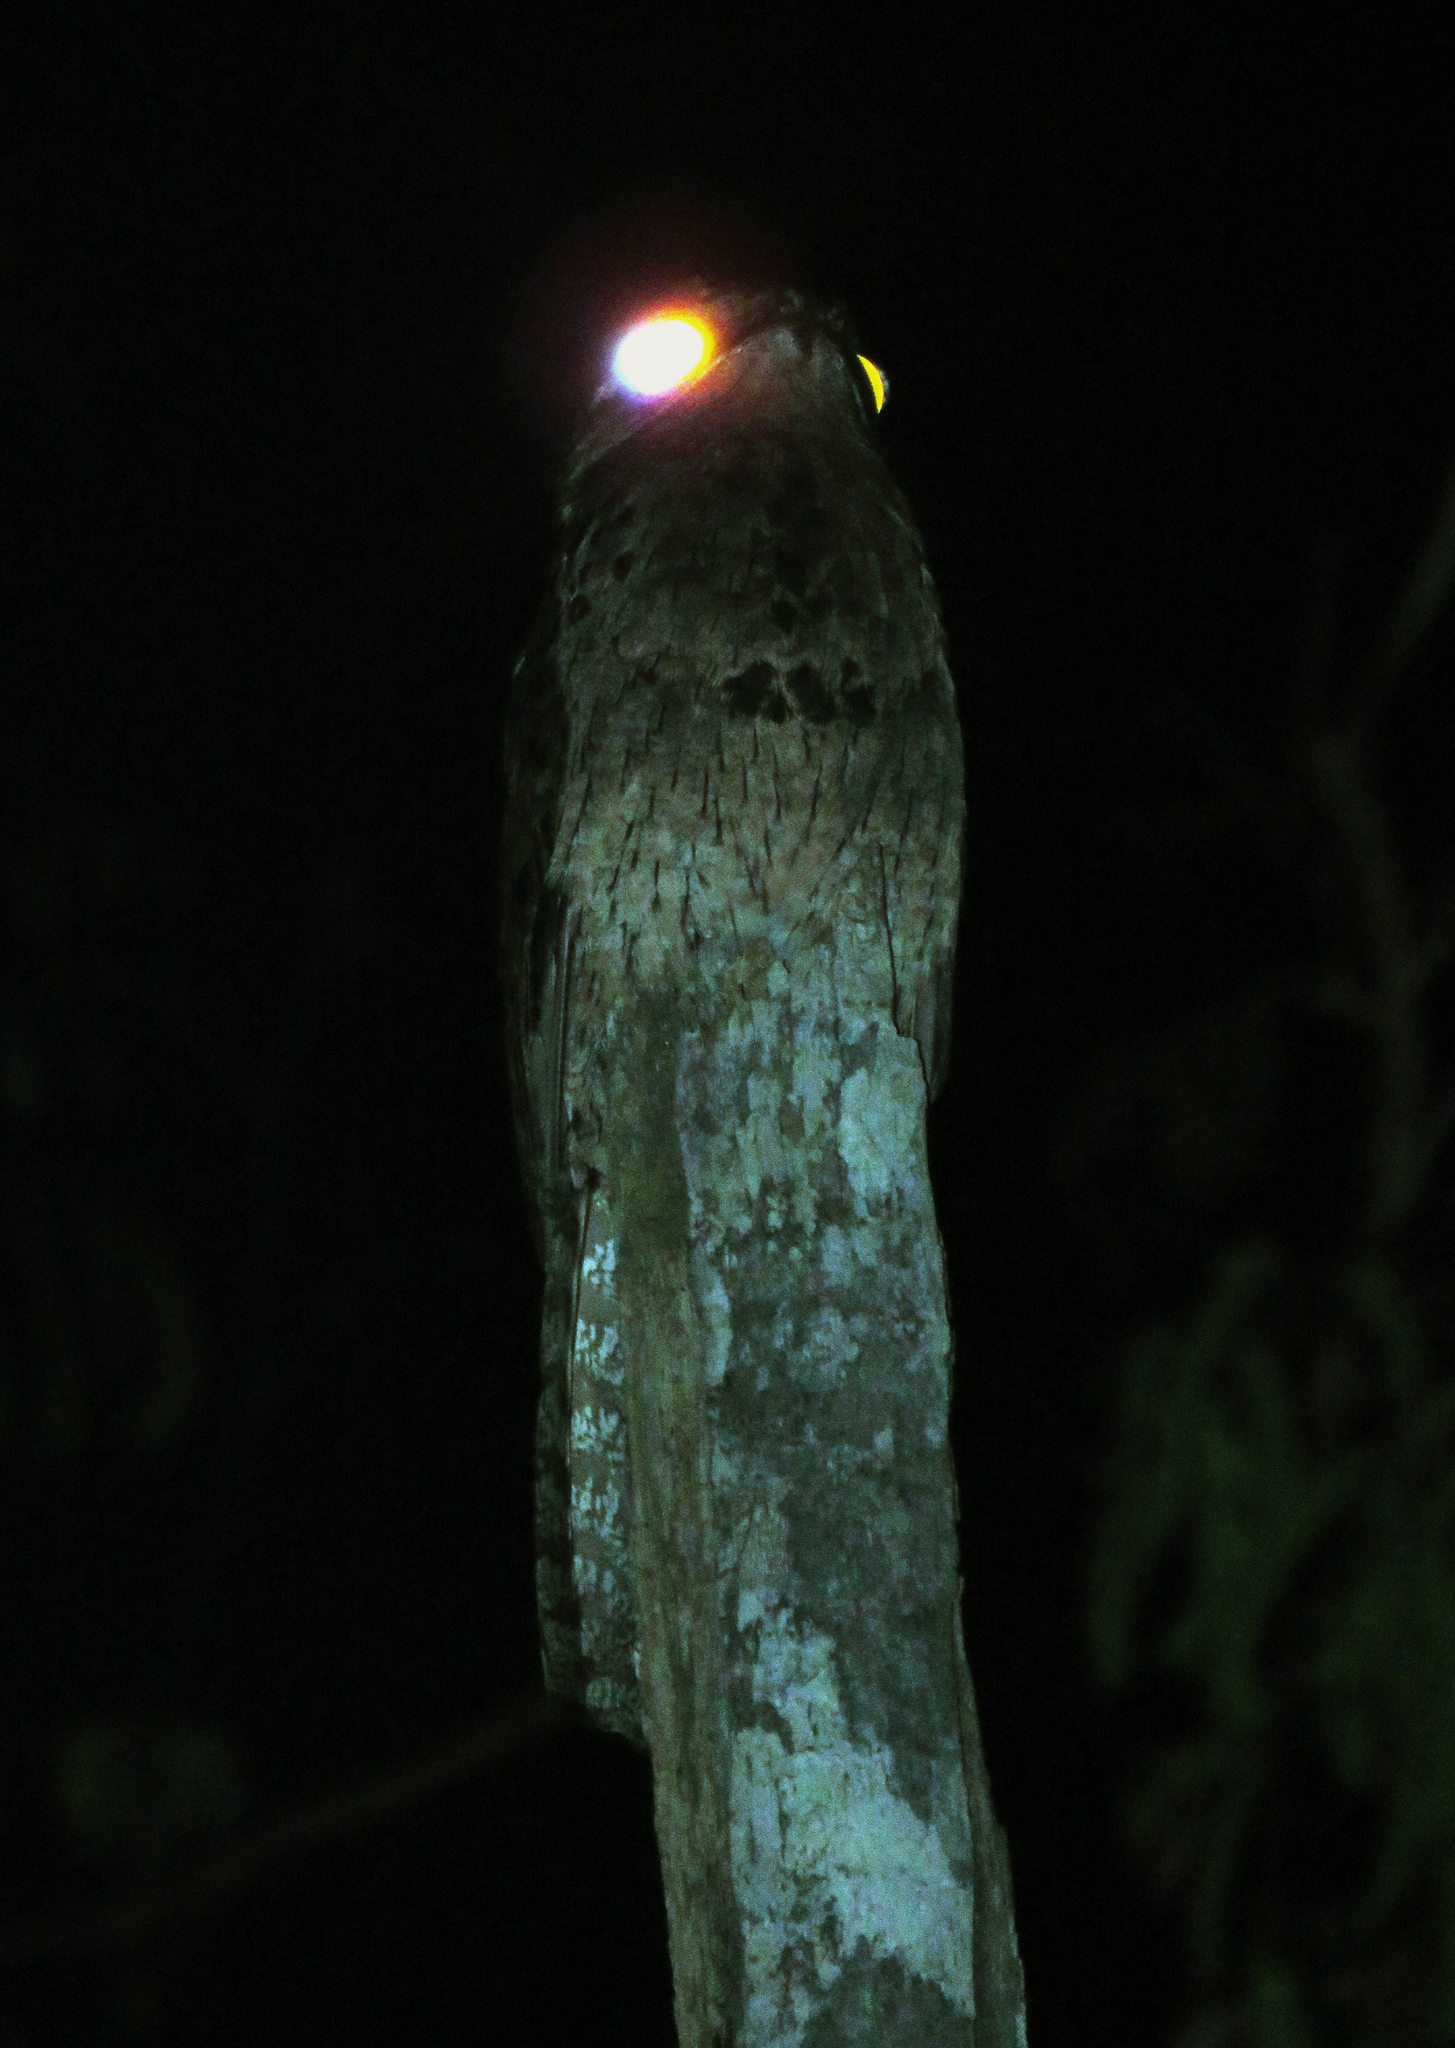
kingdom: Animalia
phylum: Chordata
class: Aves
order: Nyctibiiformes
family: Nyctibiidae
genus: Nyctibius
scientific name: Nyctibius griseus
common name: Common potoo
